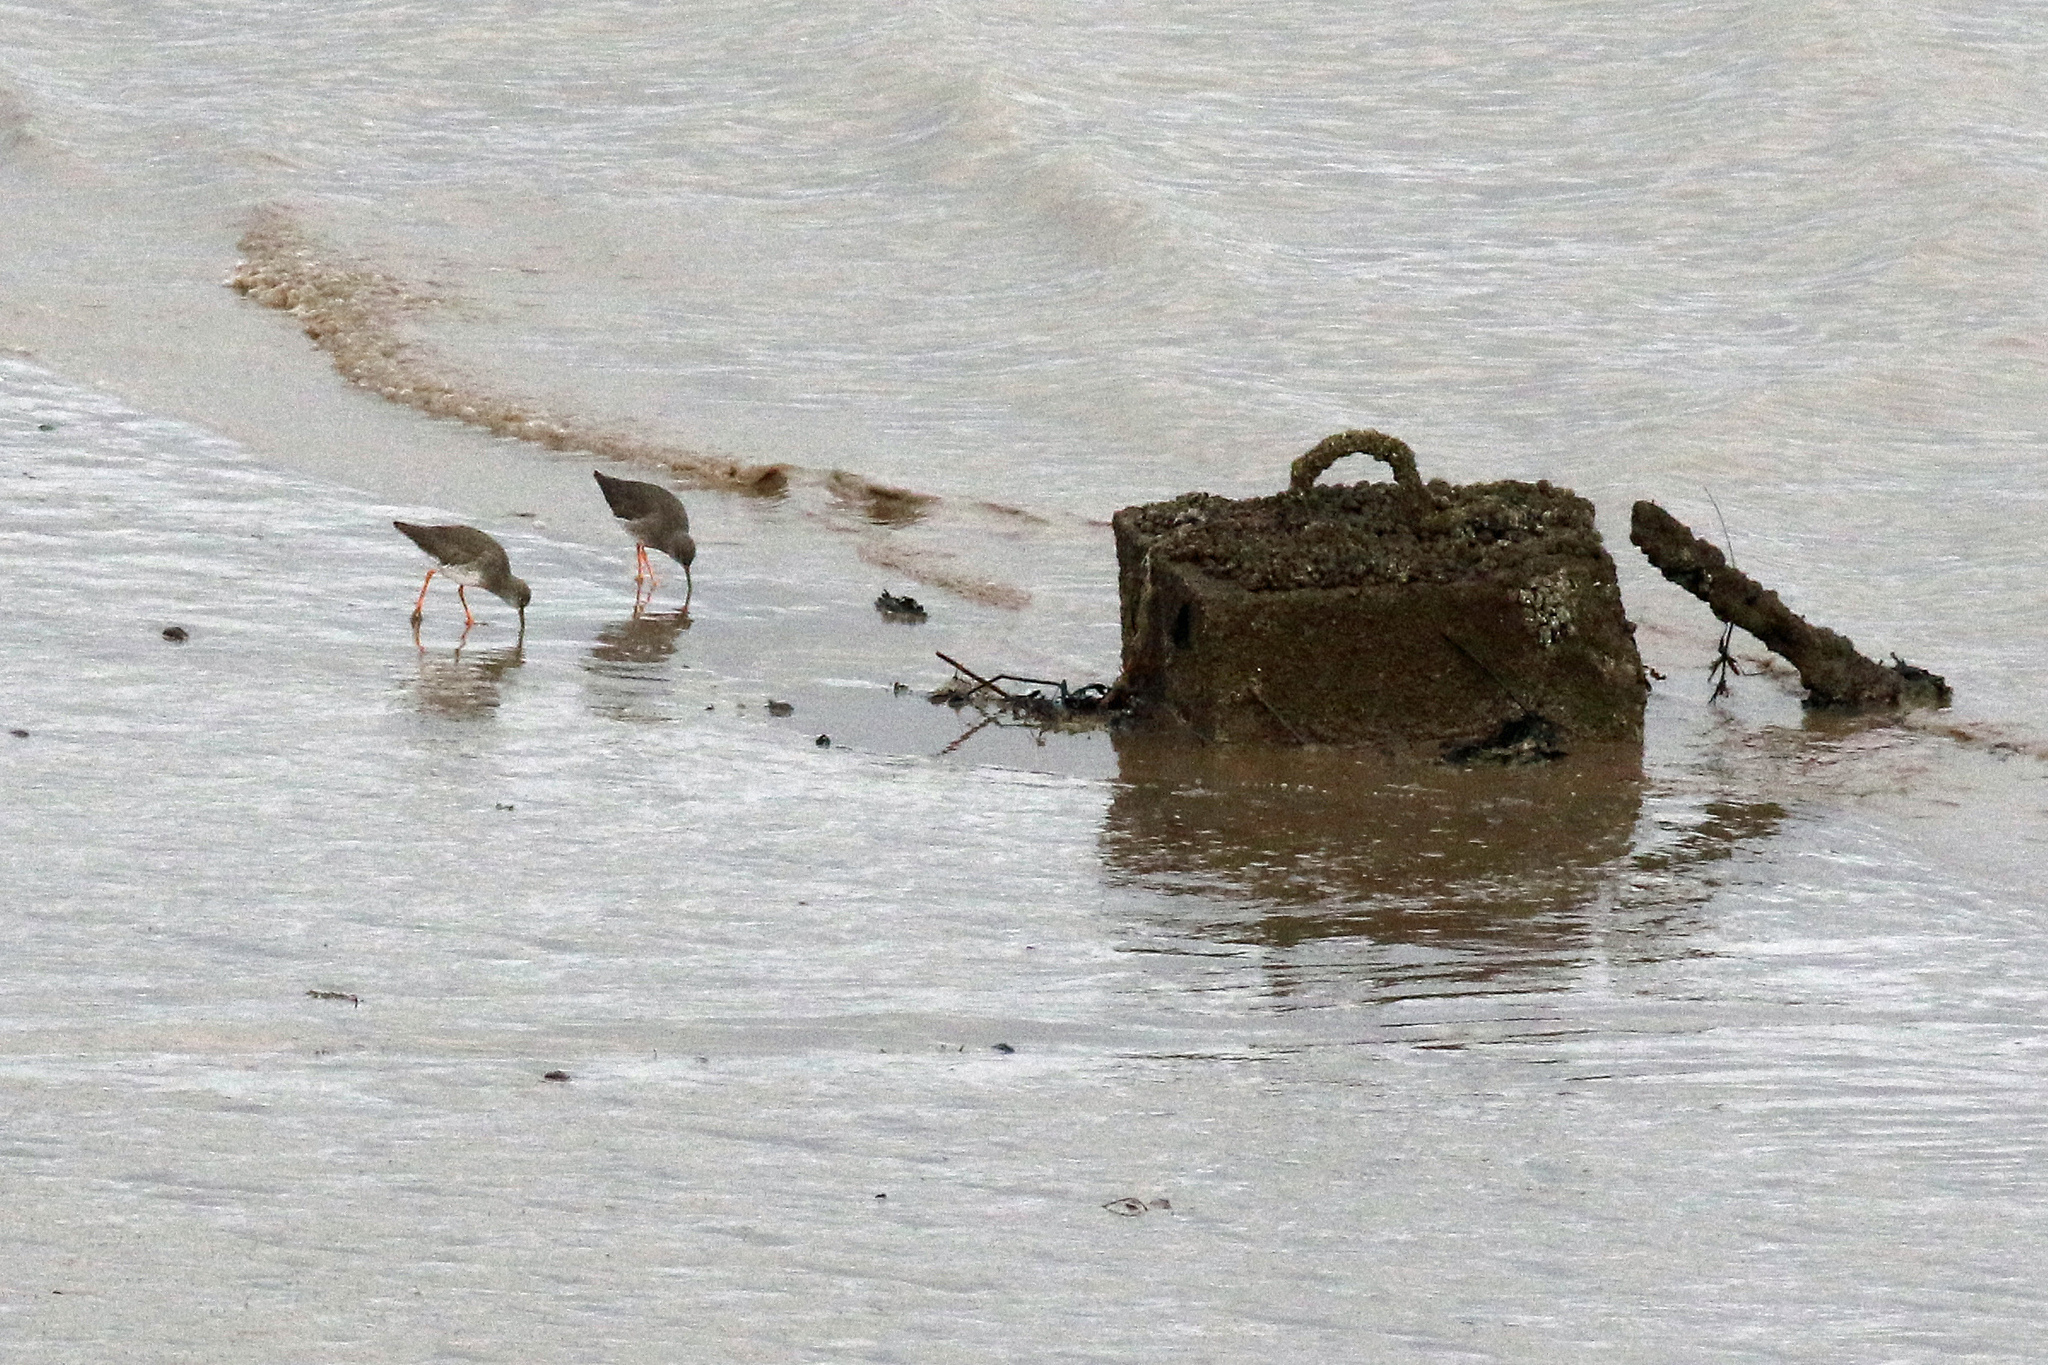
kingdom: Animalia
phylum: Chordata
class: Aves
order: Charadriiformes
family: Scolopacidae
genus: Tringa
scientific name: Tringa totanus
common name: Common redshank
